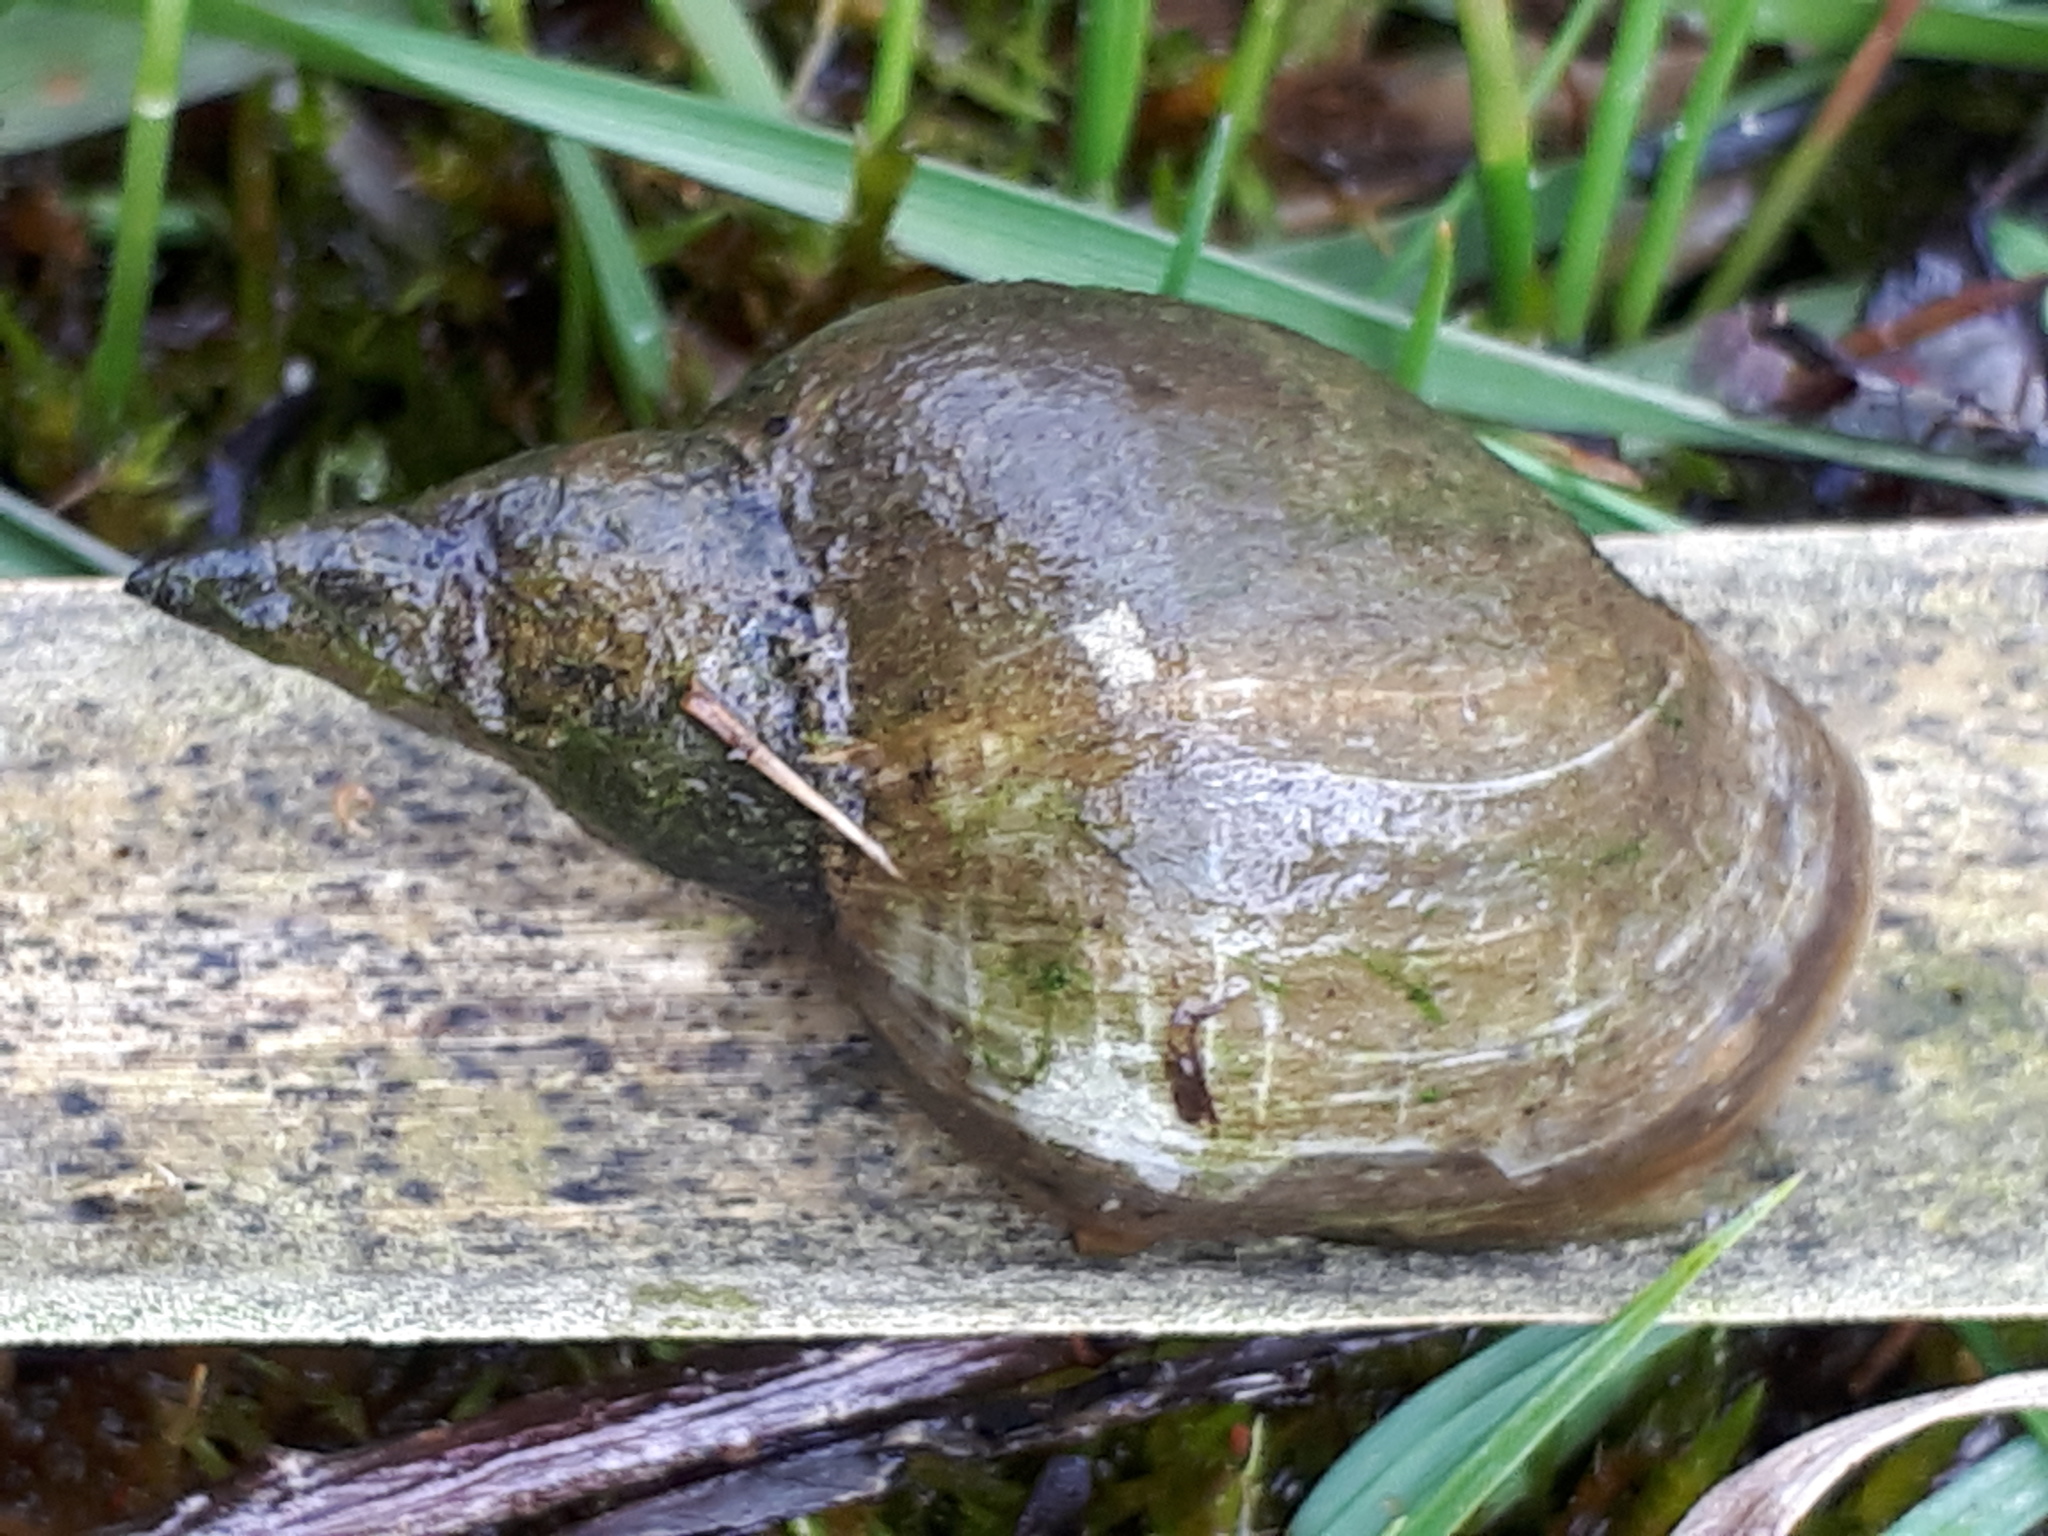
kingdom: Animalia
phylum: Mollusca
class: Gastropoda
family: Lymnaeidae
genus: Lymnaea
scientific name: Lymnaea stagnalis
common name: Great pond snail
